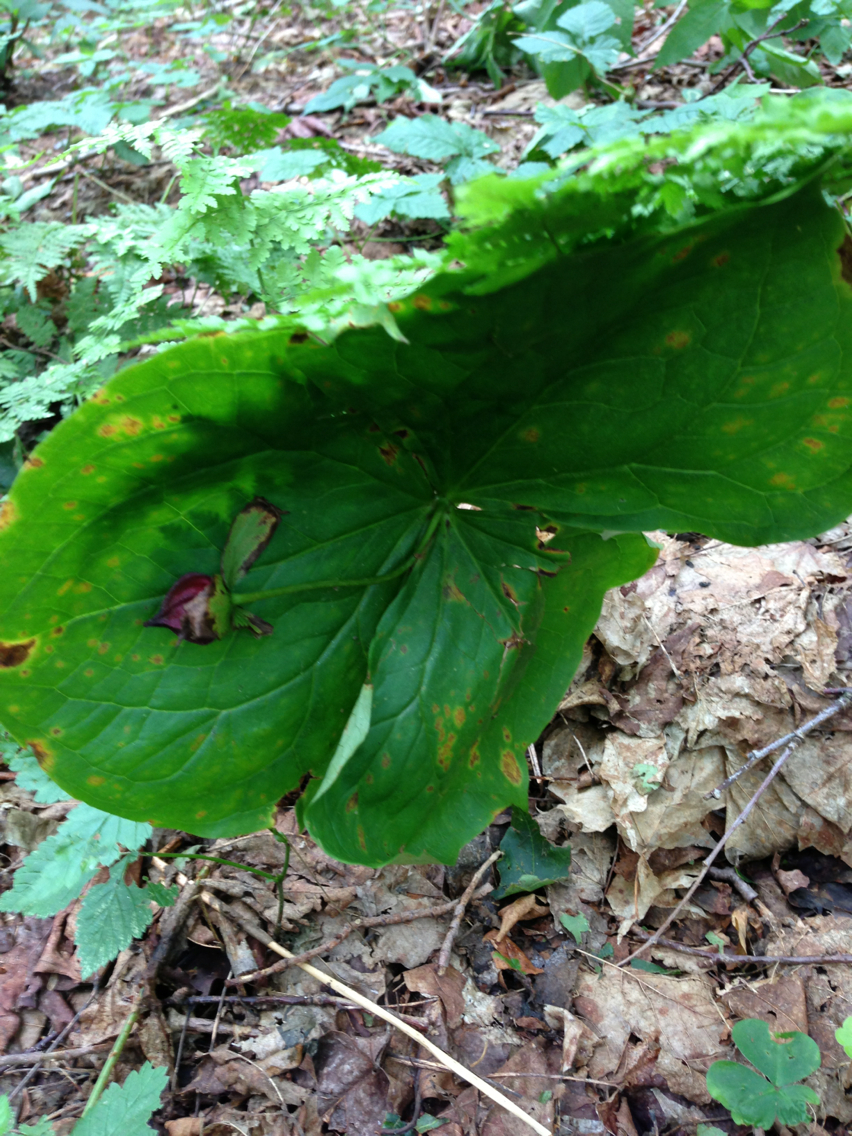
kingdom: Plantae
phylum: Tracheophyta
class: Liliopsida
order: Liliales
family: Melanthiaceae
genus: Trillium
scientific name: Trillium erectum
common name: Purple trillium
